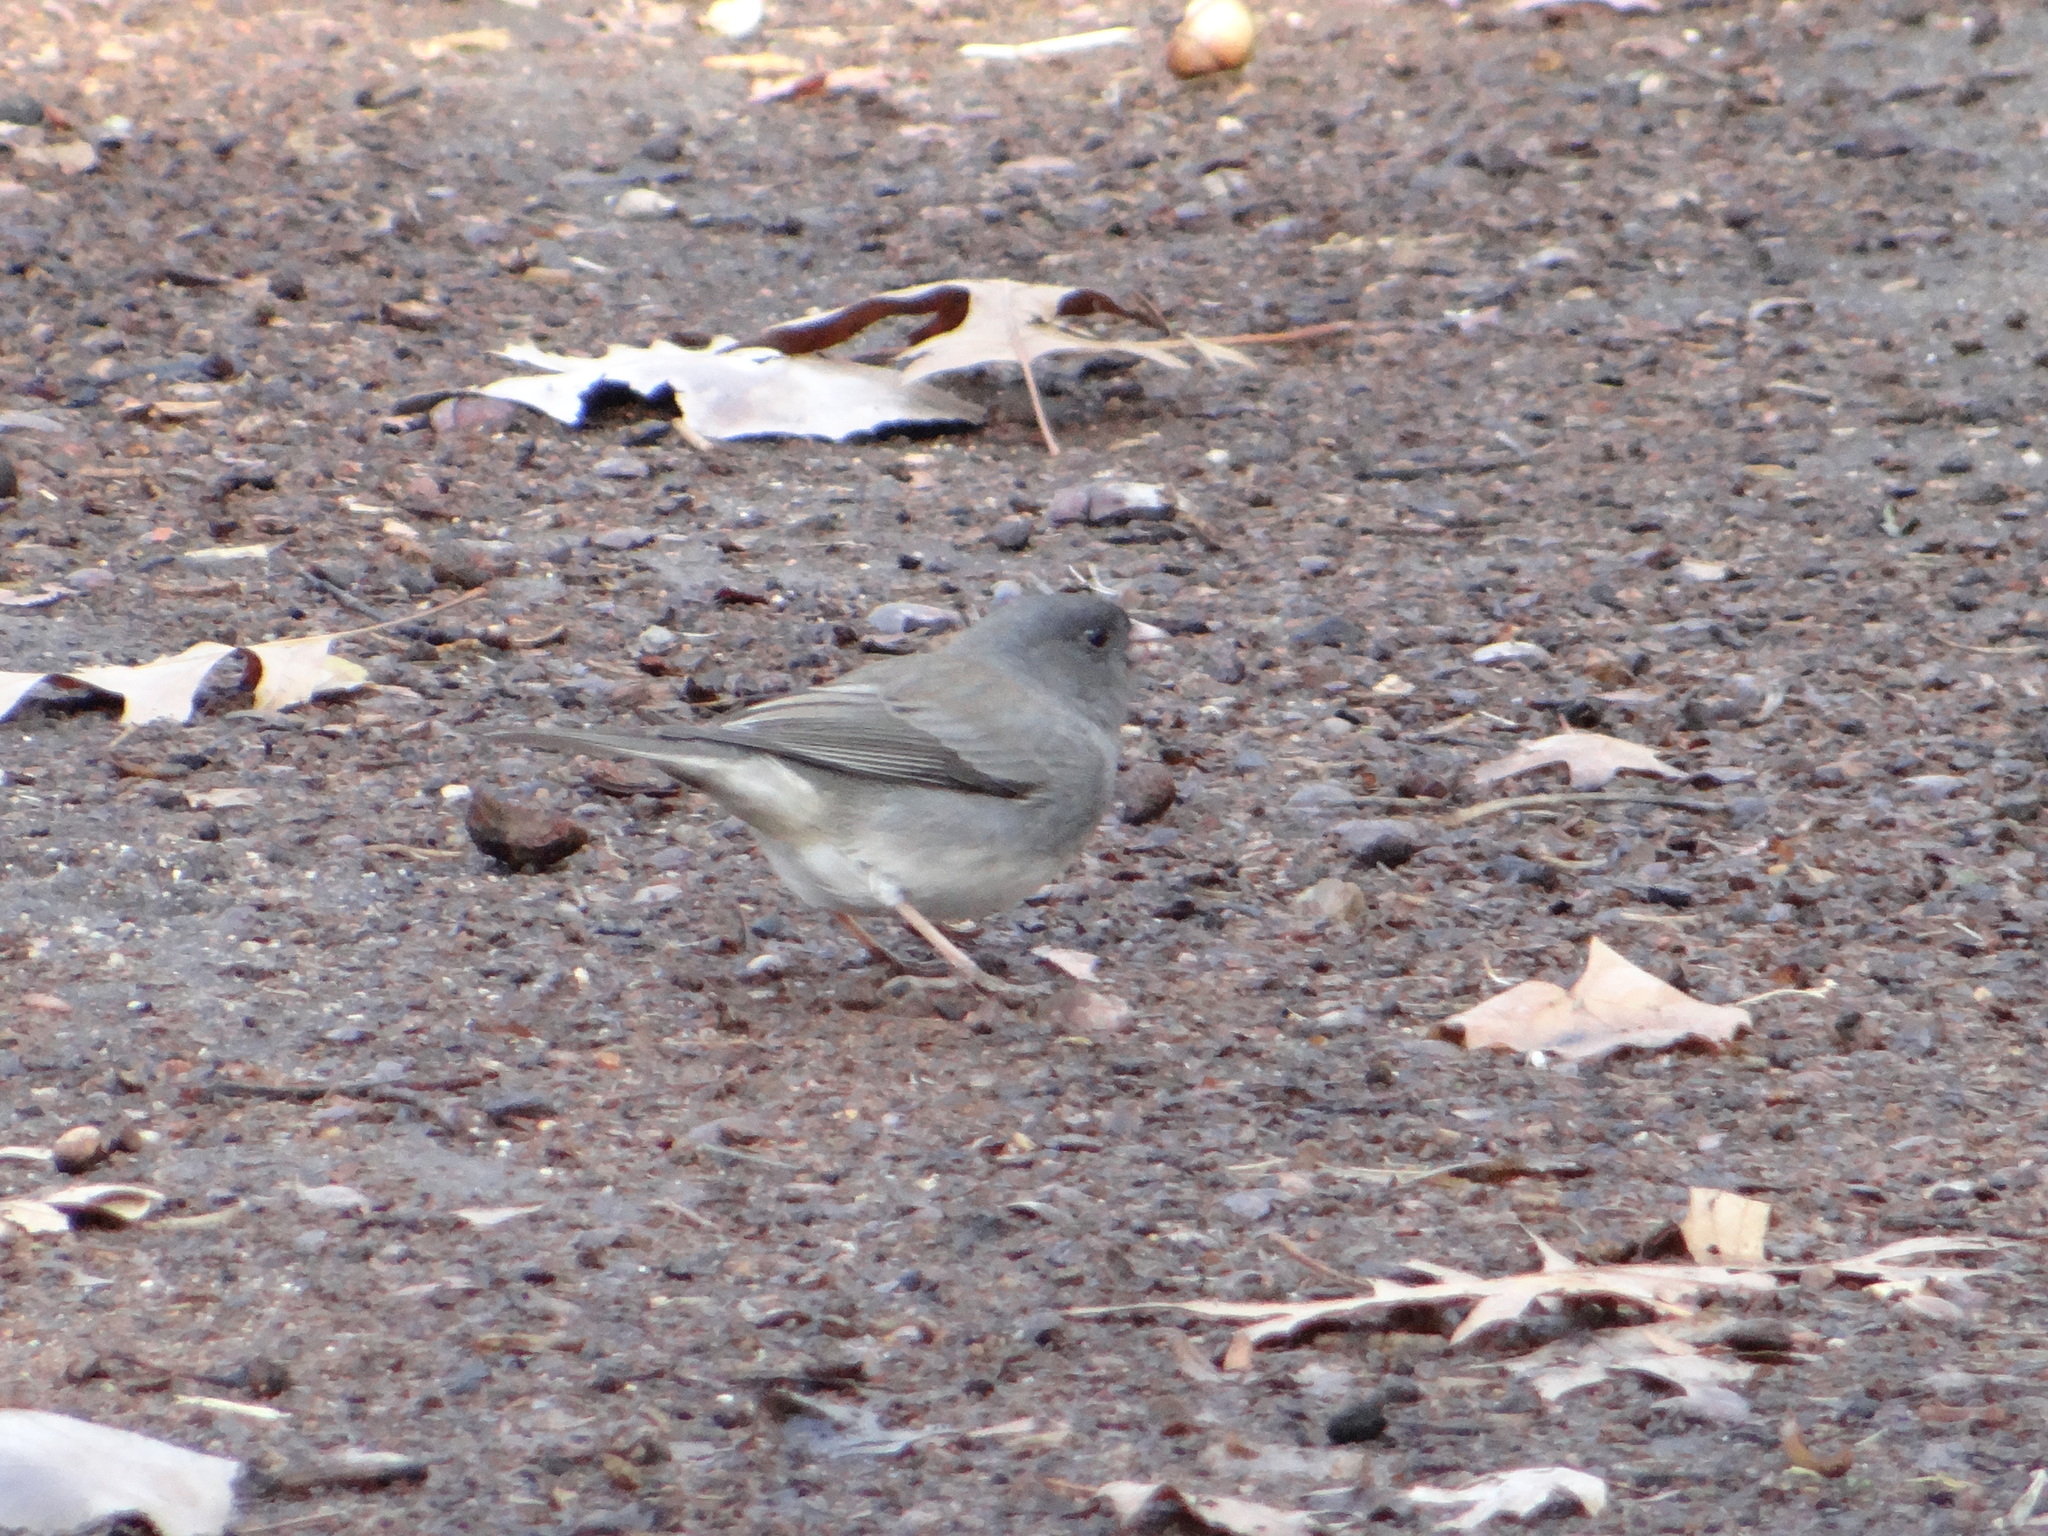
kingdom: Animalia
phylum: Chordata
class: Aves
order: Passeriformes
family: Passerellidae
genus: Junco
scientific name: Junco hyemalis
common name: Dark-eyed junco
